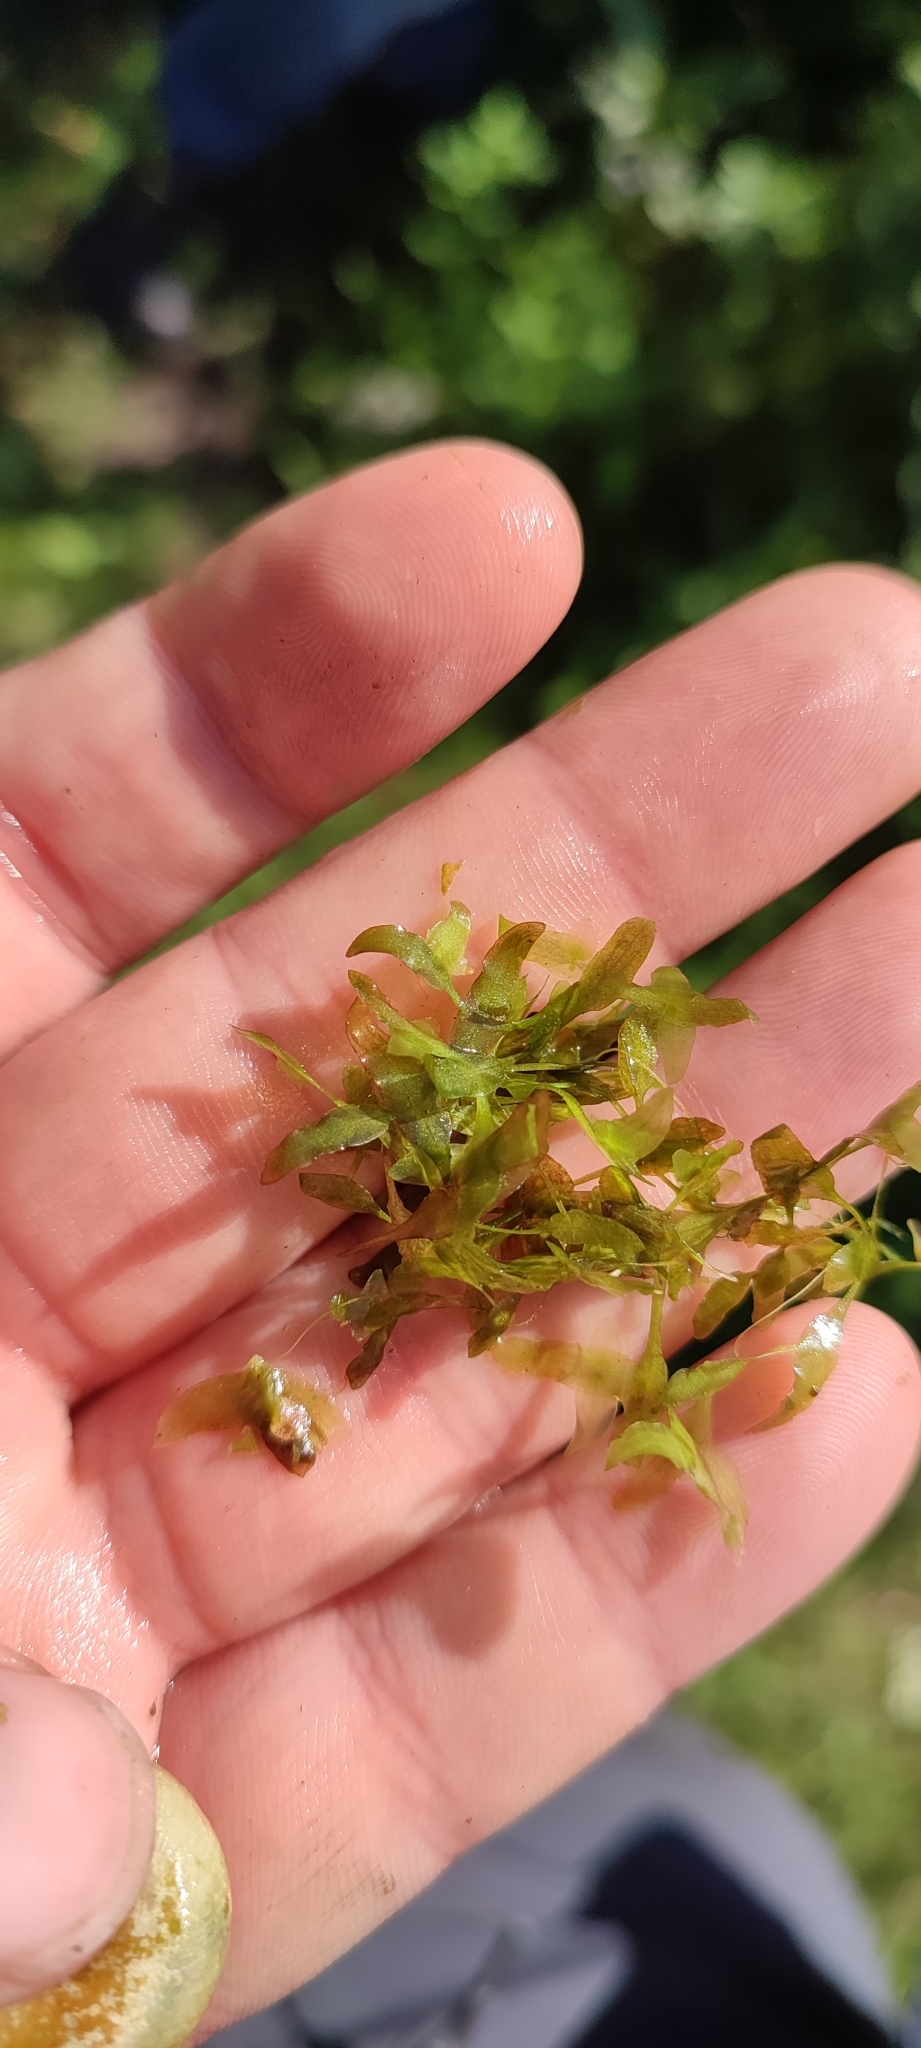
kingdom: Plantae
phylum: Tracheophyta
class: Liliopsida
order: Alismatales
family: Araceae
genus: Lemna
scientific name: Lemna trisulca
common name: Ivy-leaved duckweed
